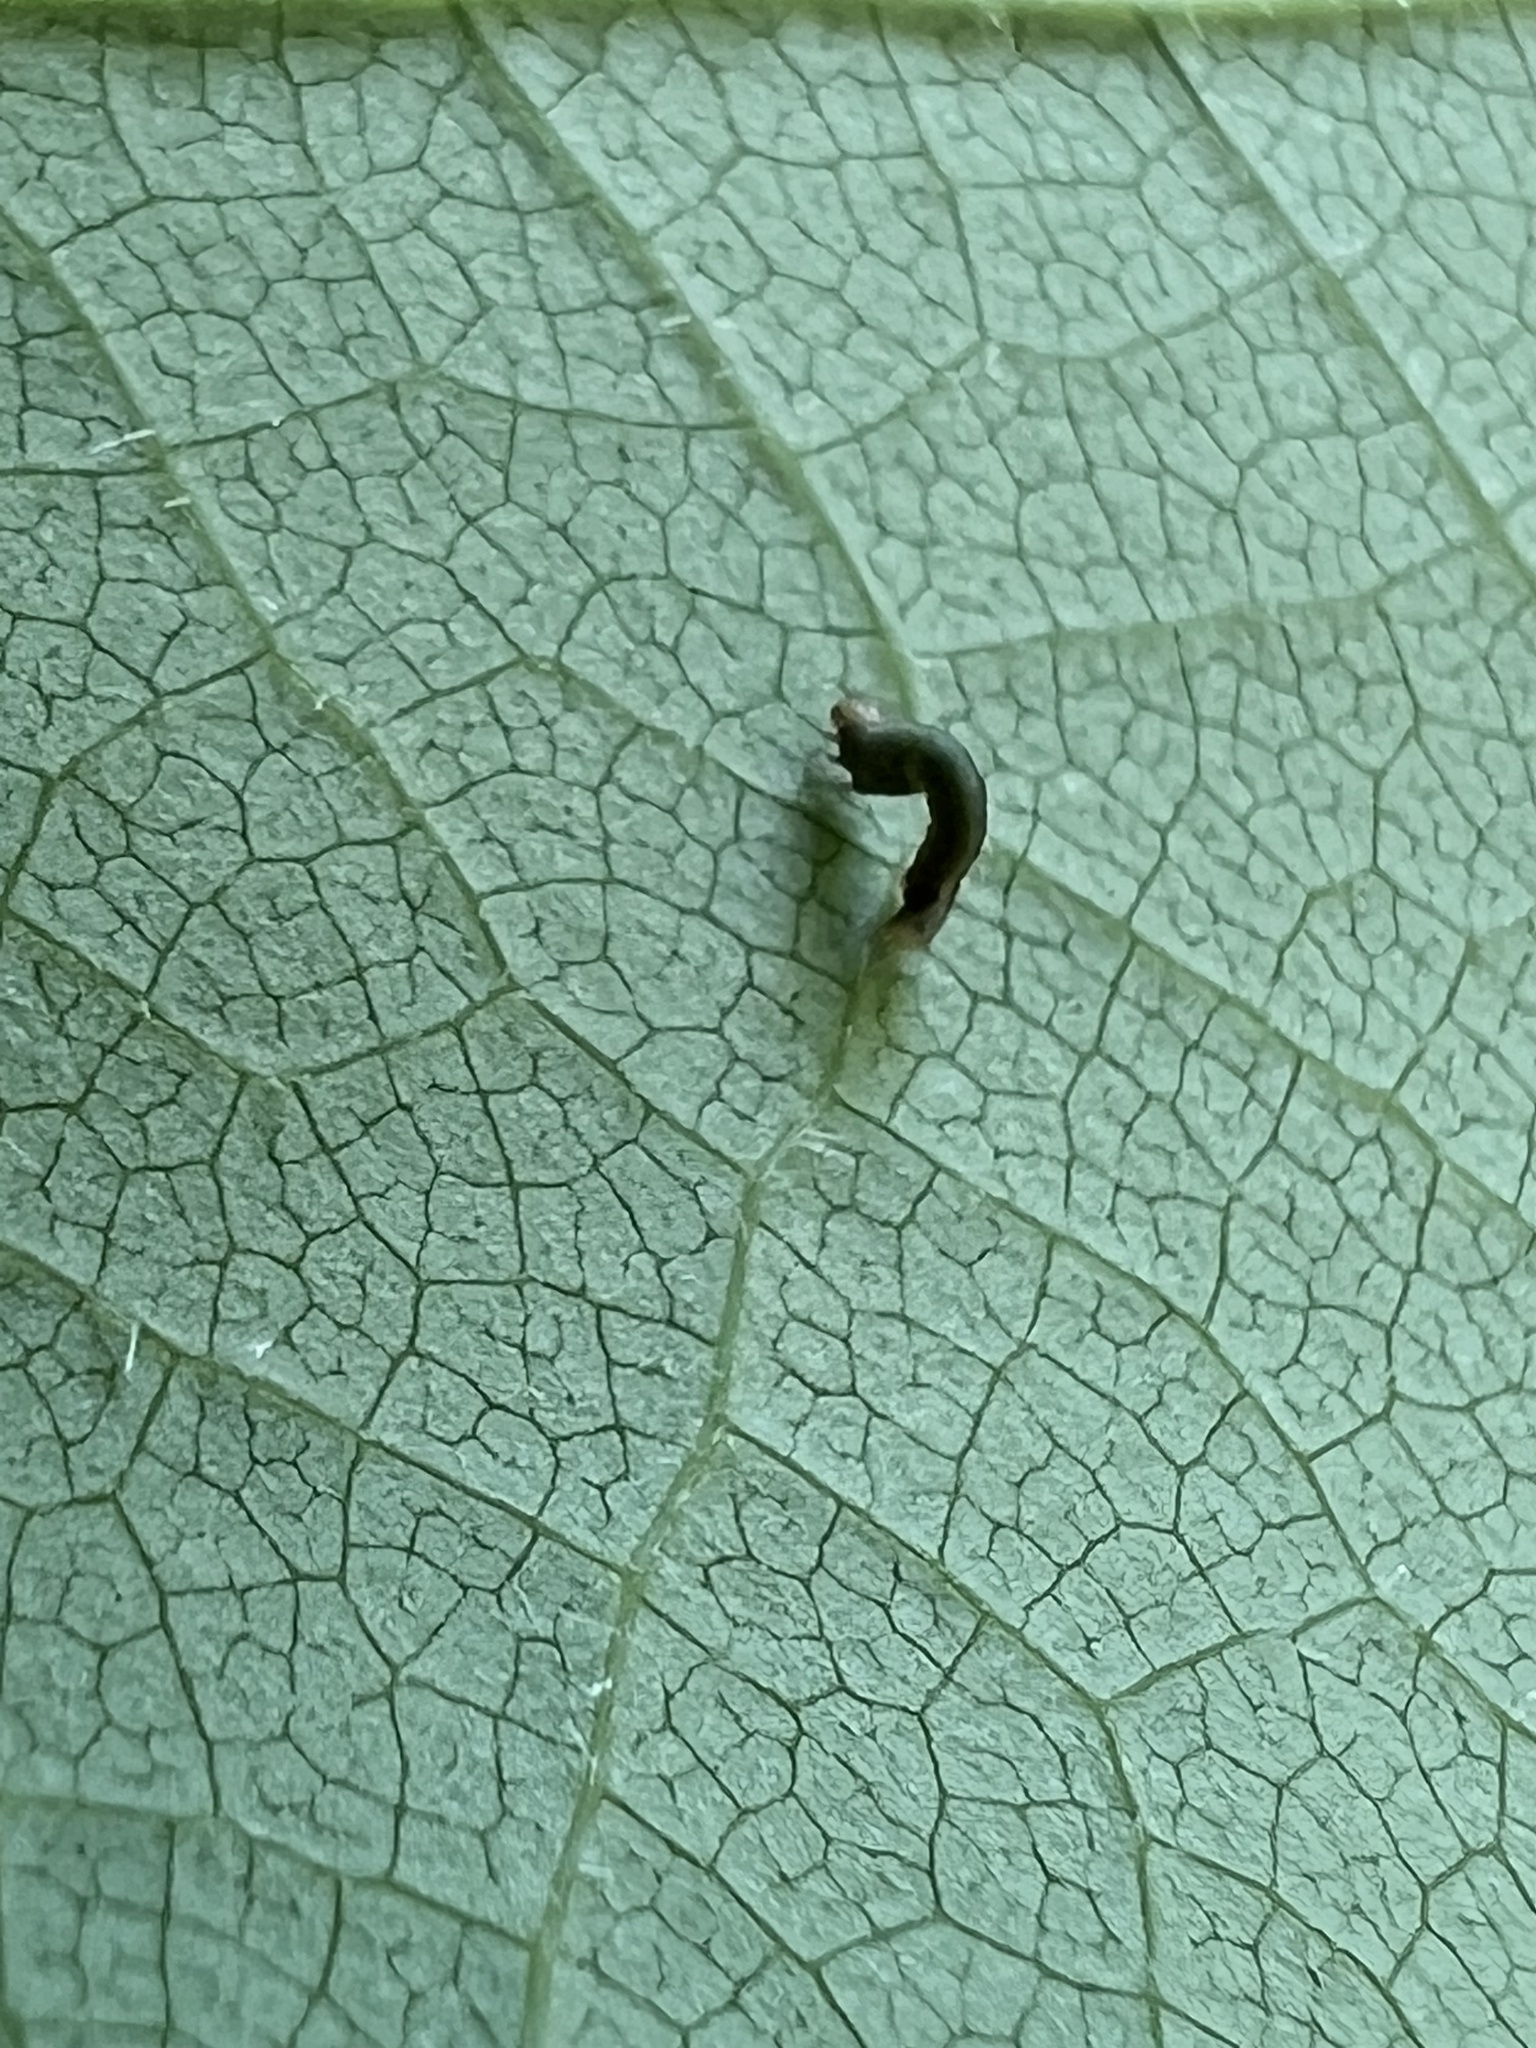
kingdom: Animalia
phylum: Arthropoda
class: Insecta
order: Lepidoptera
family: Geometridae
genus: Epimecis
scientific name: Epimecis hortaria
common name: Tulip-tree beauty
